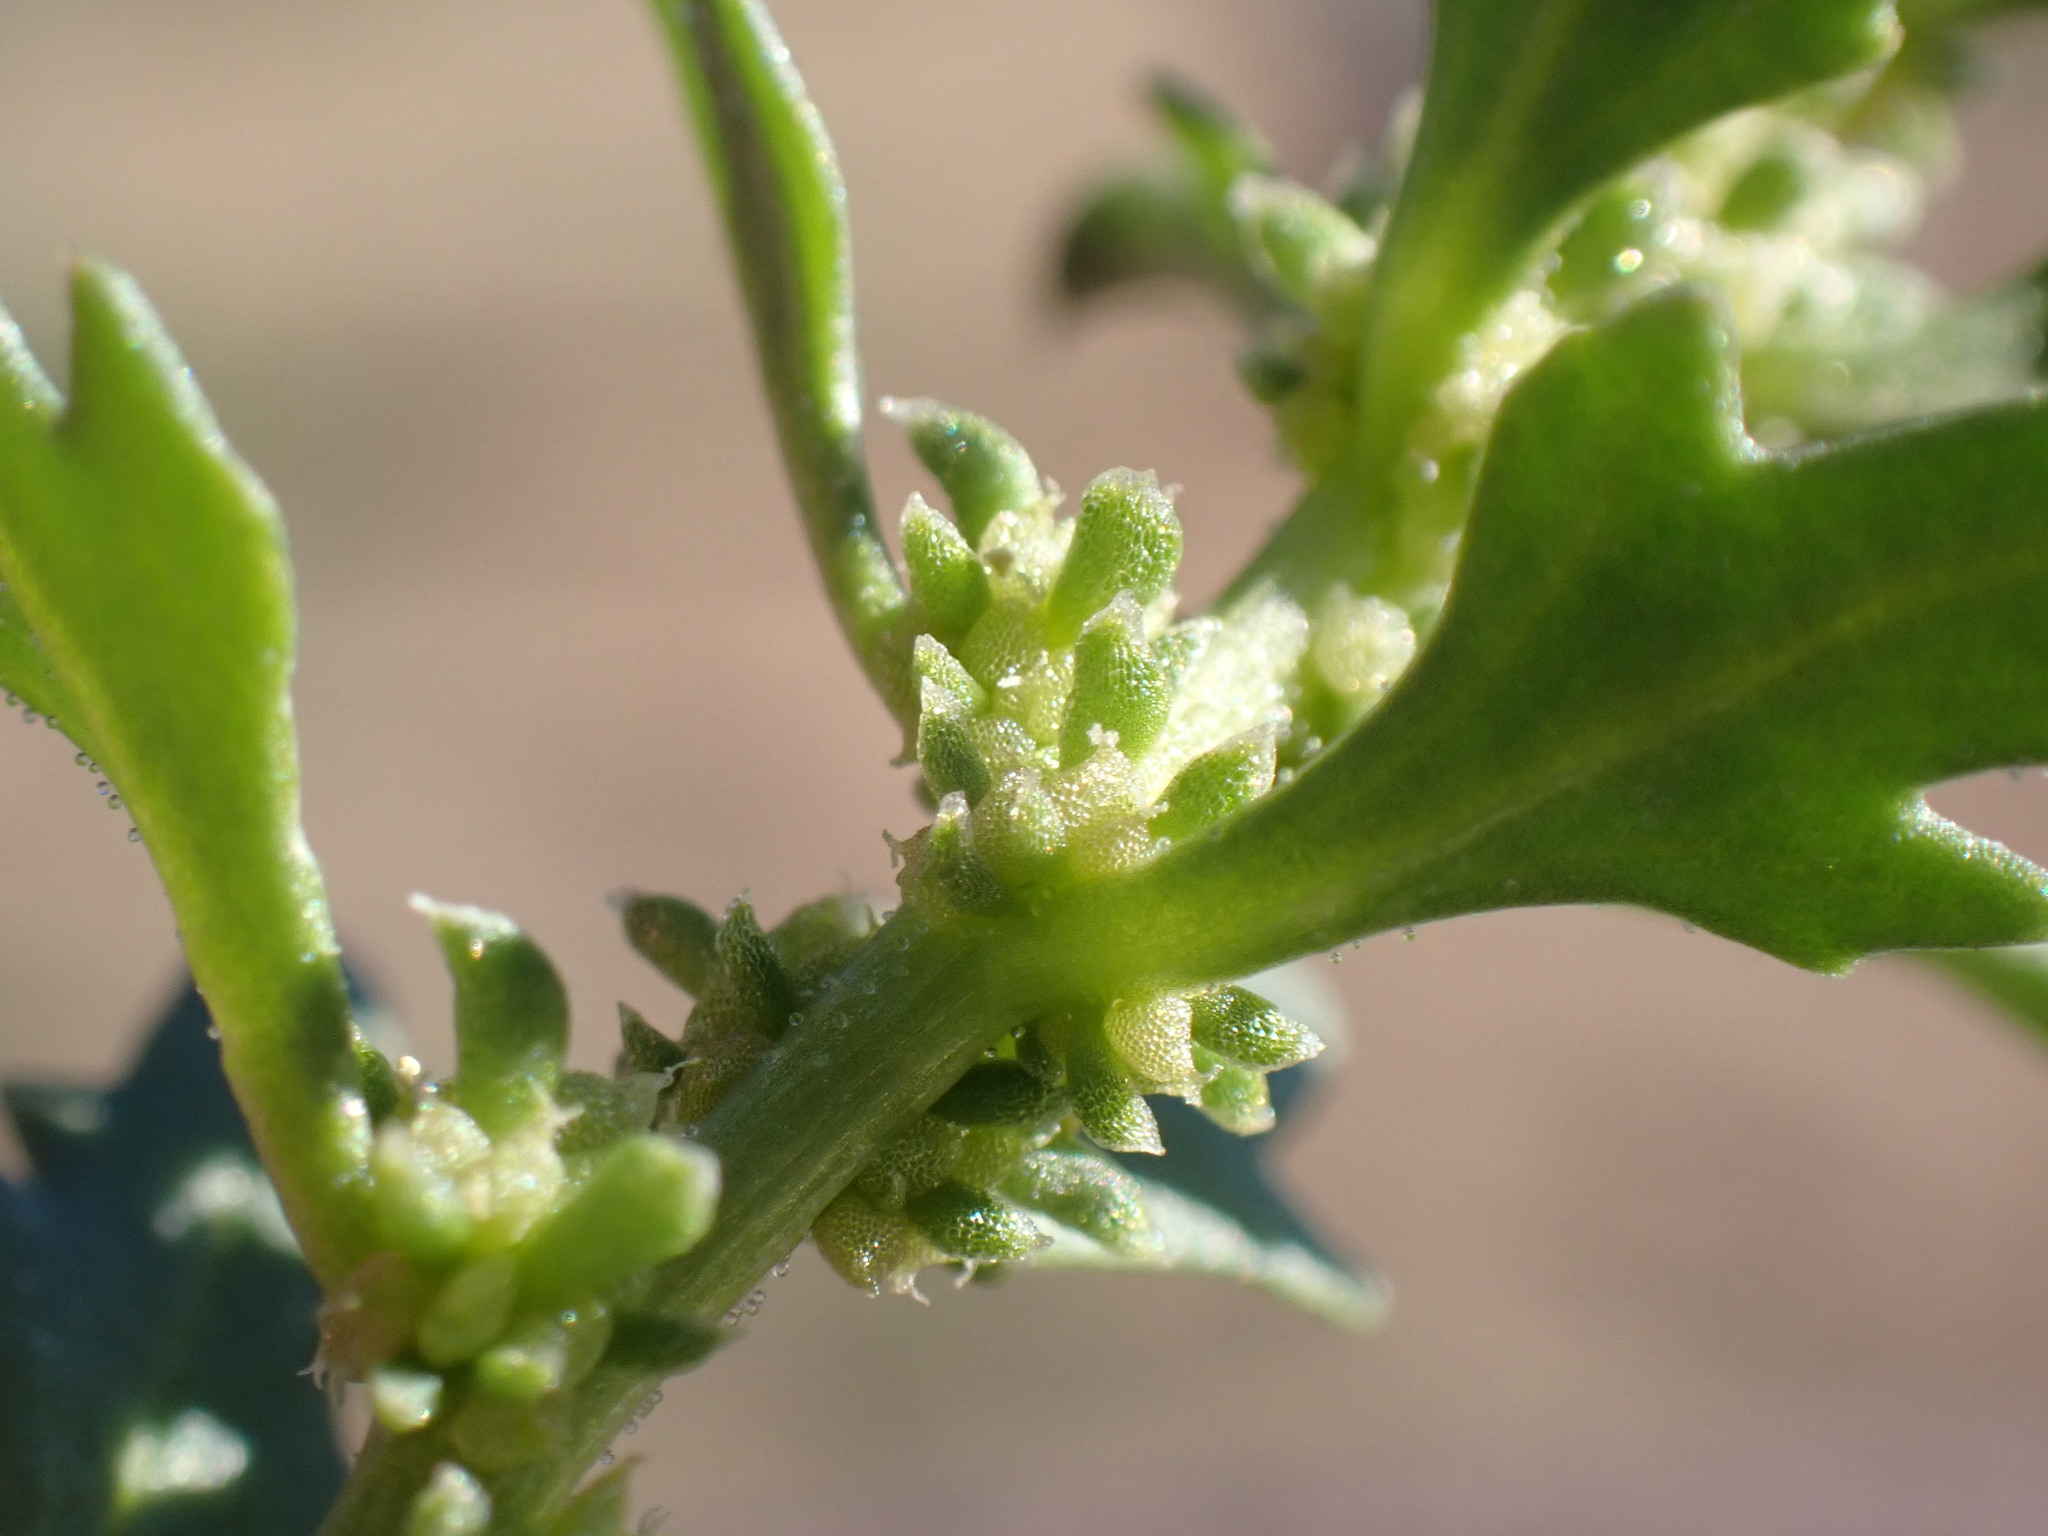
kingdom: Plantae
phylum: Tracheophyta
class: Magnoliopsida
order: Caryophyllales
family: Amaranthaceae
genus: Blitum
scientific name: Blitum nuttallianum
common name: Poverty-weed
